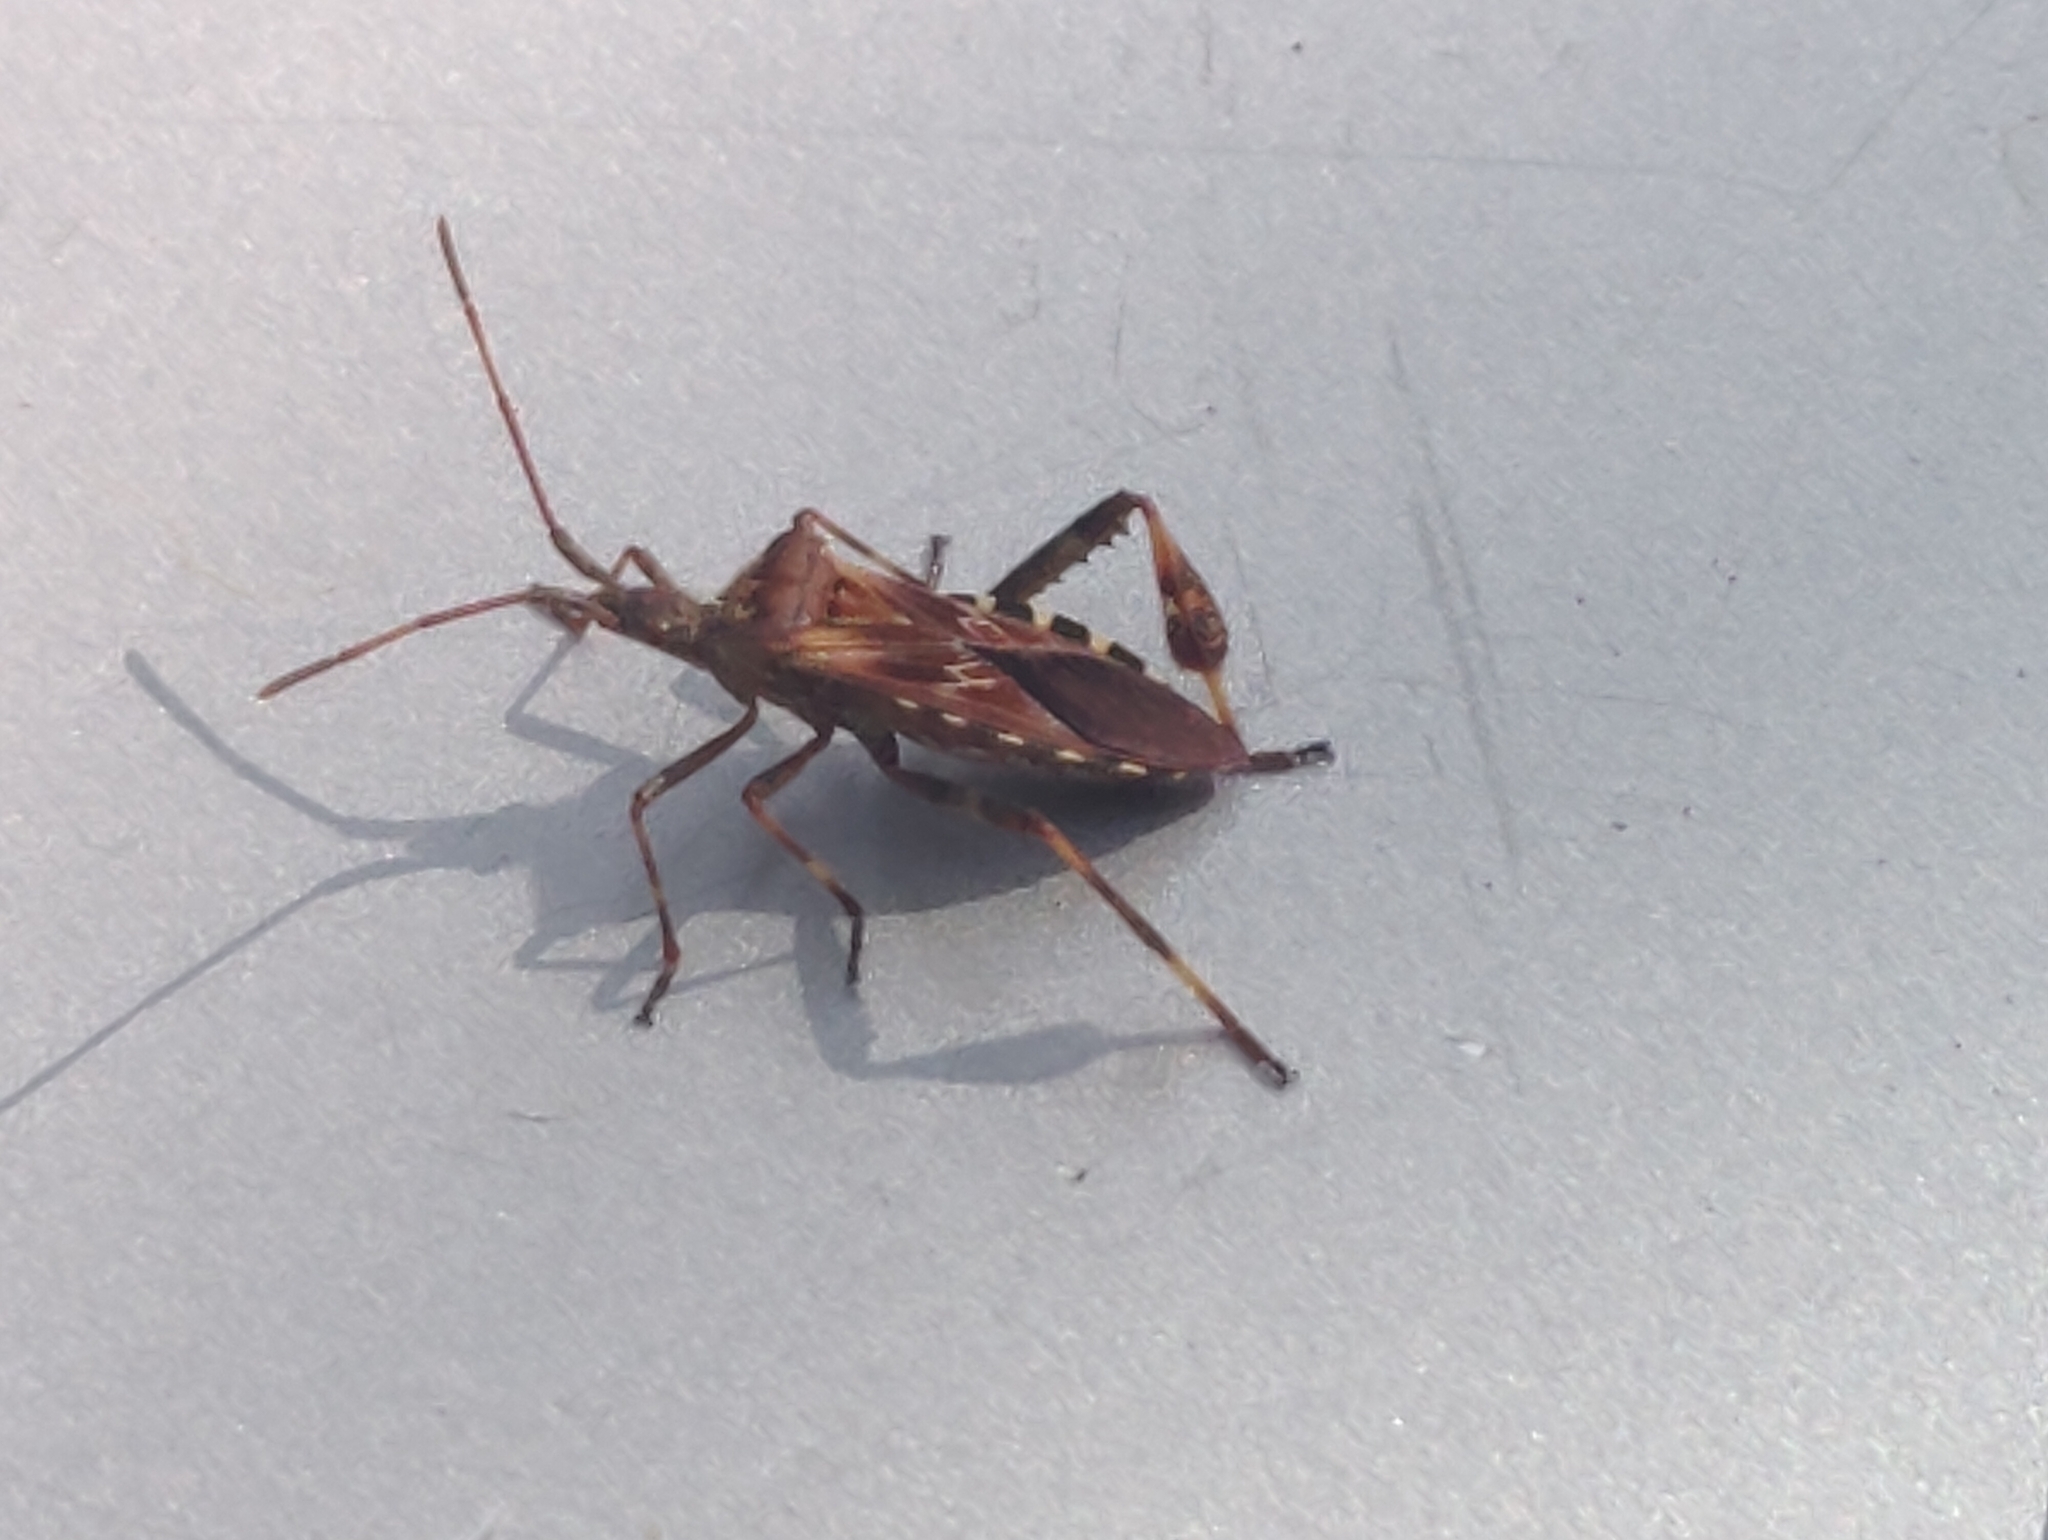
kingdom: Animalia
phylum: Arthropoda
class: Insecta
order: Hemiptera
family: Coreidae
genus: Leptoglossus
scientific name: Leptoglossus occidentalis
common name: Western conifer-seed bug
